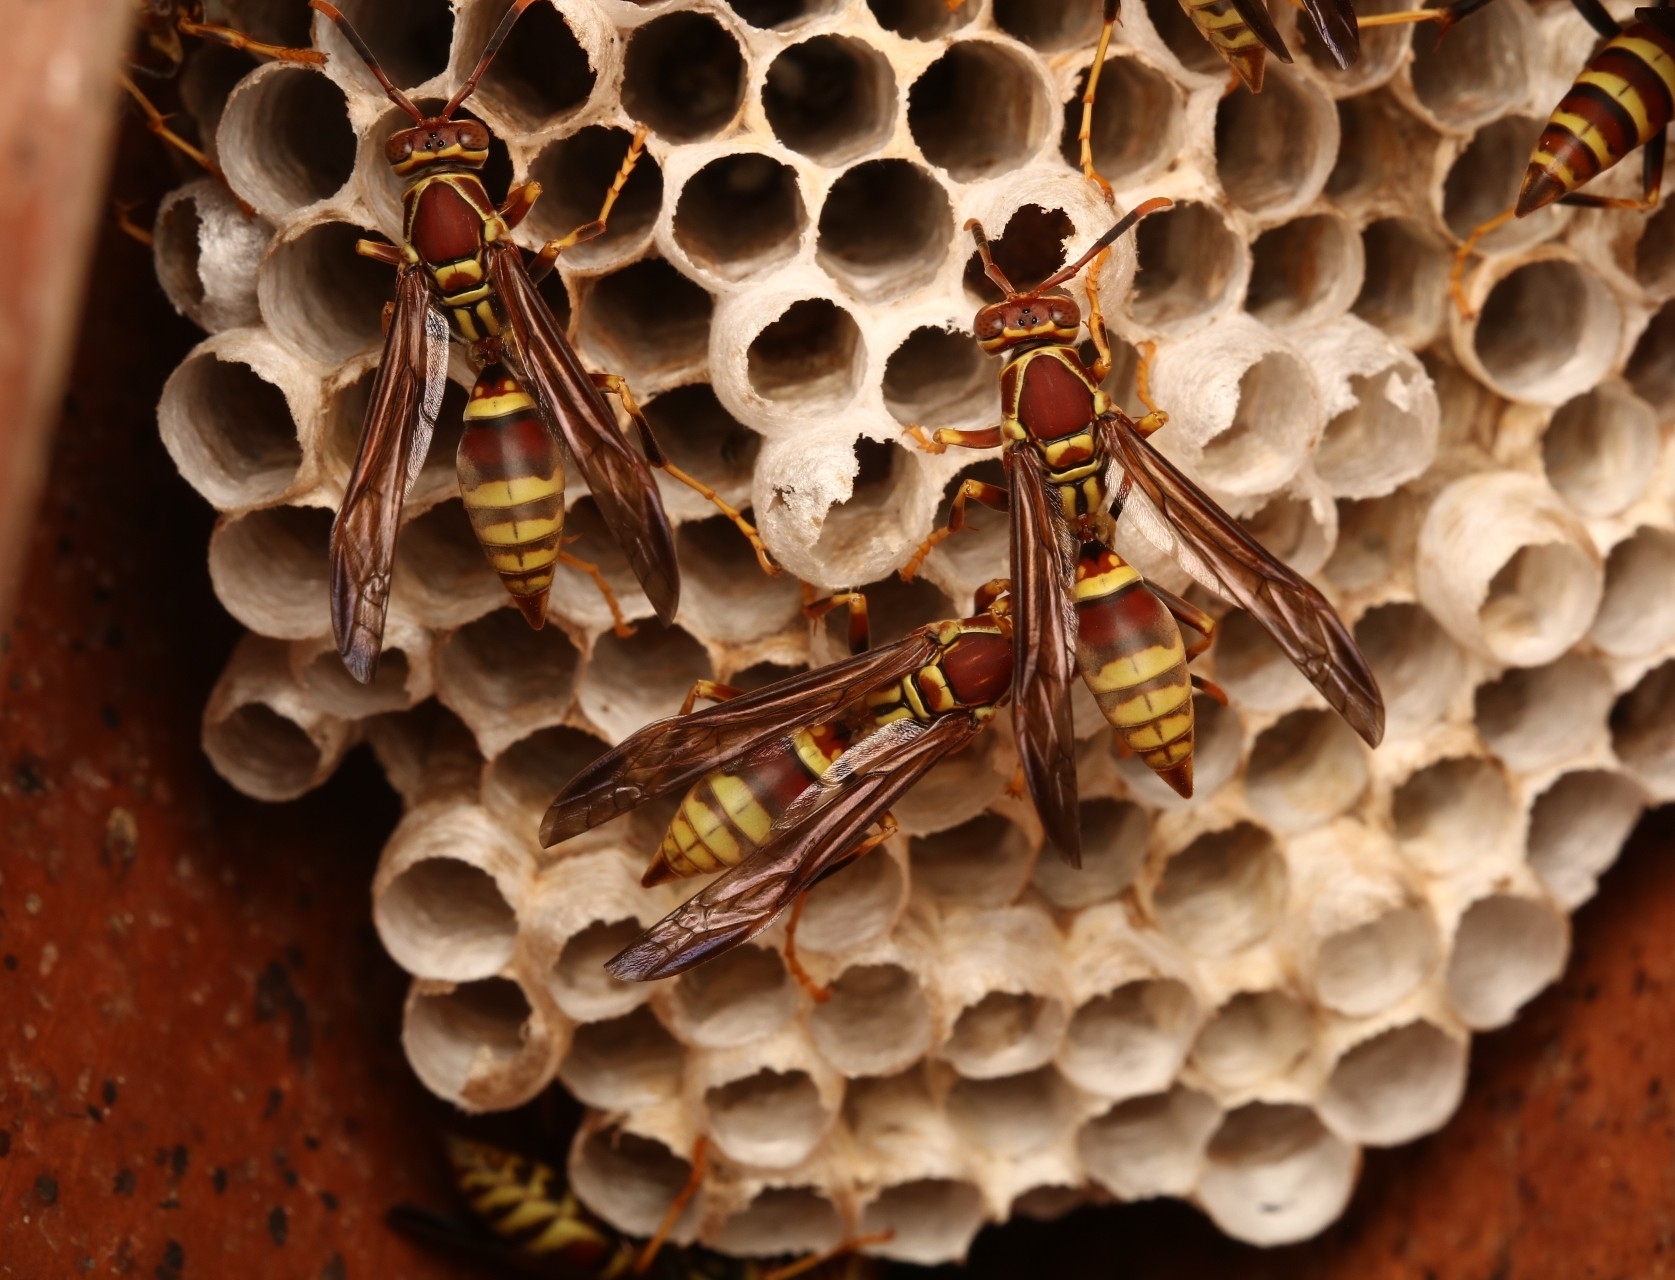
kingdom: Animalia
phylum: Arthropoda
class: Insecta
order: Hymenoptera
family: Eumenidae
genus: Polistes
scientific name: Polistes exclamans
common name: Paper wasp
